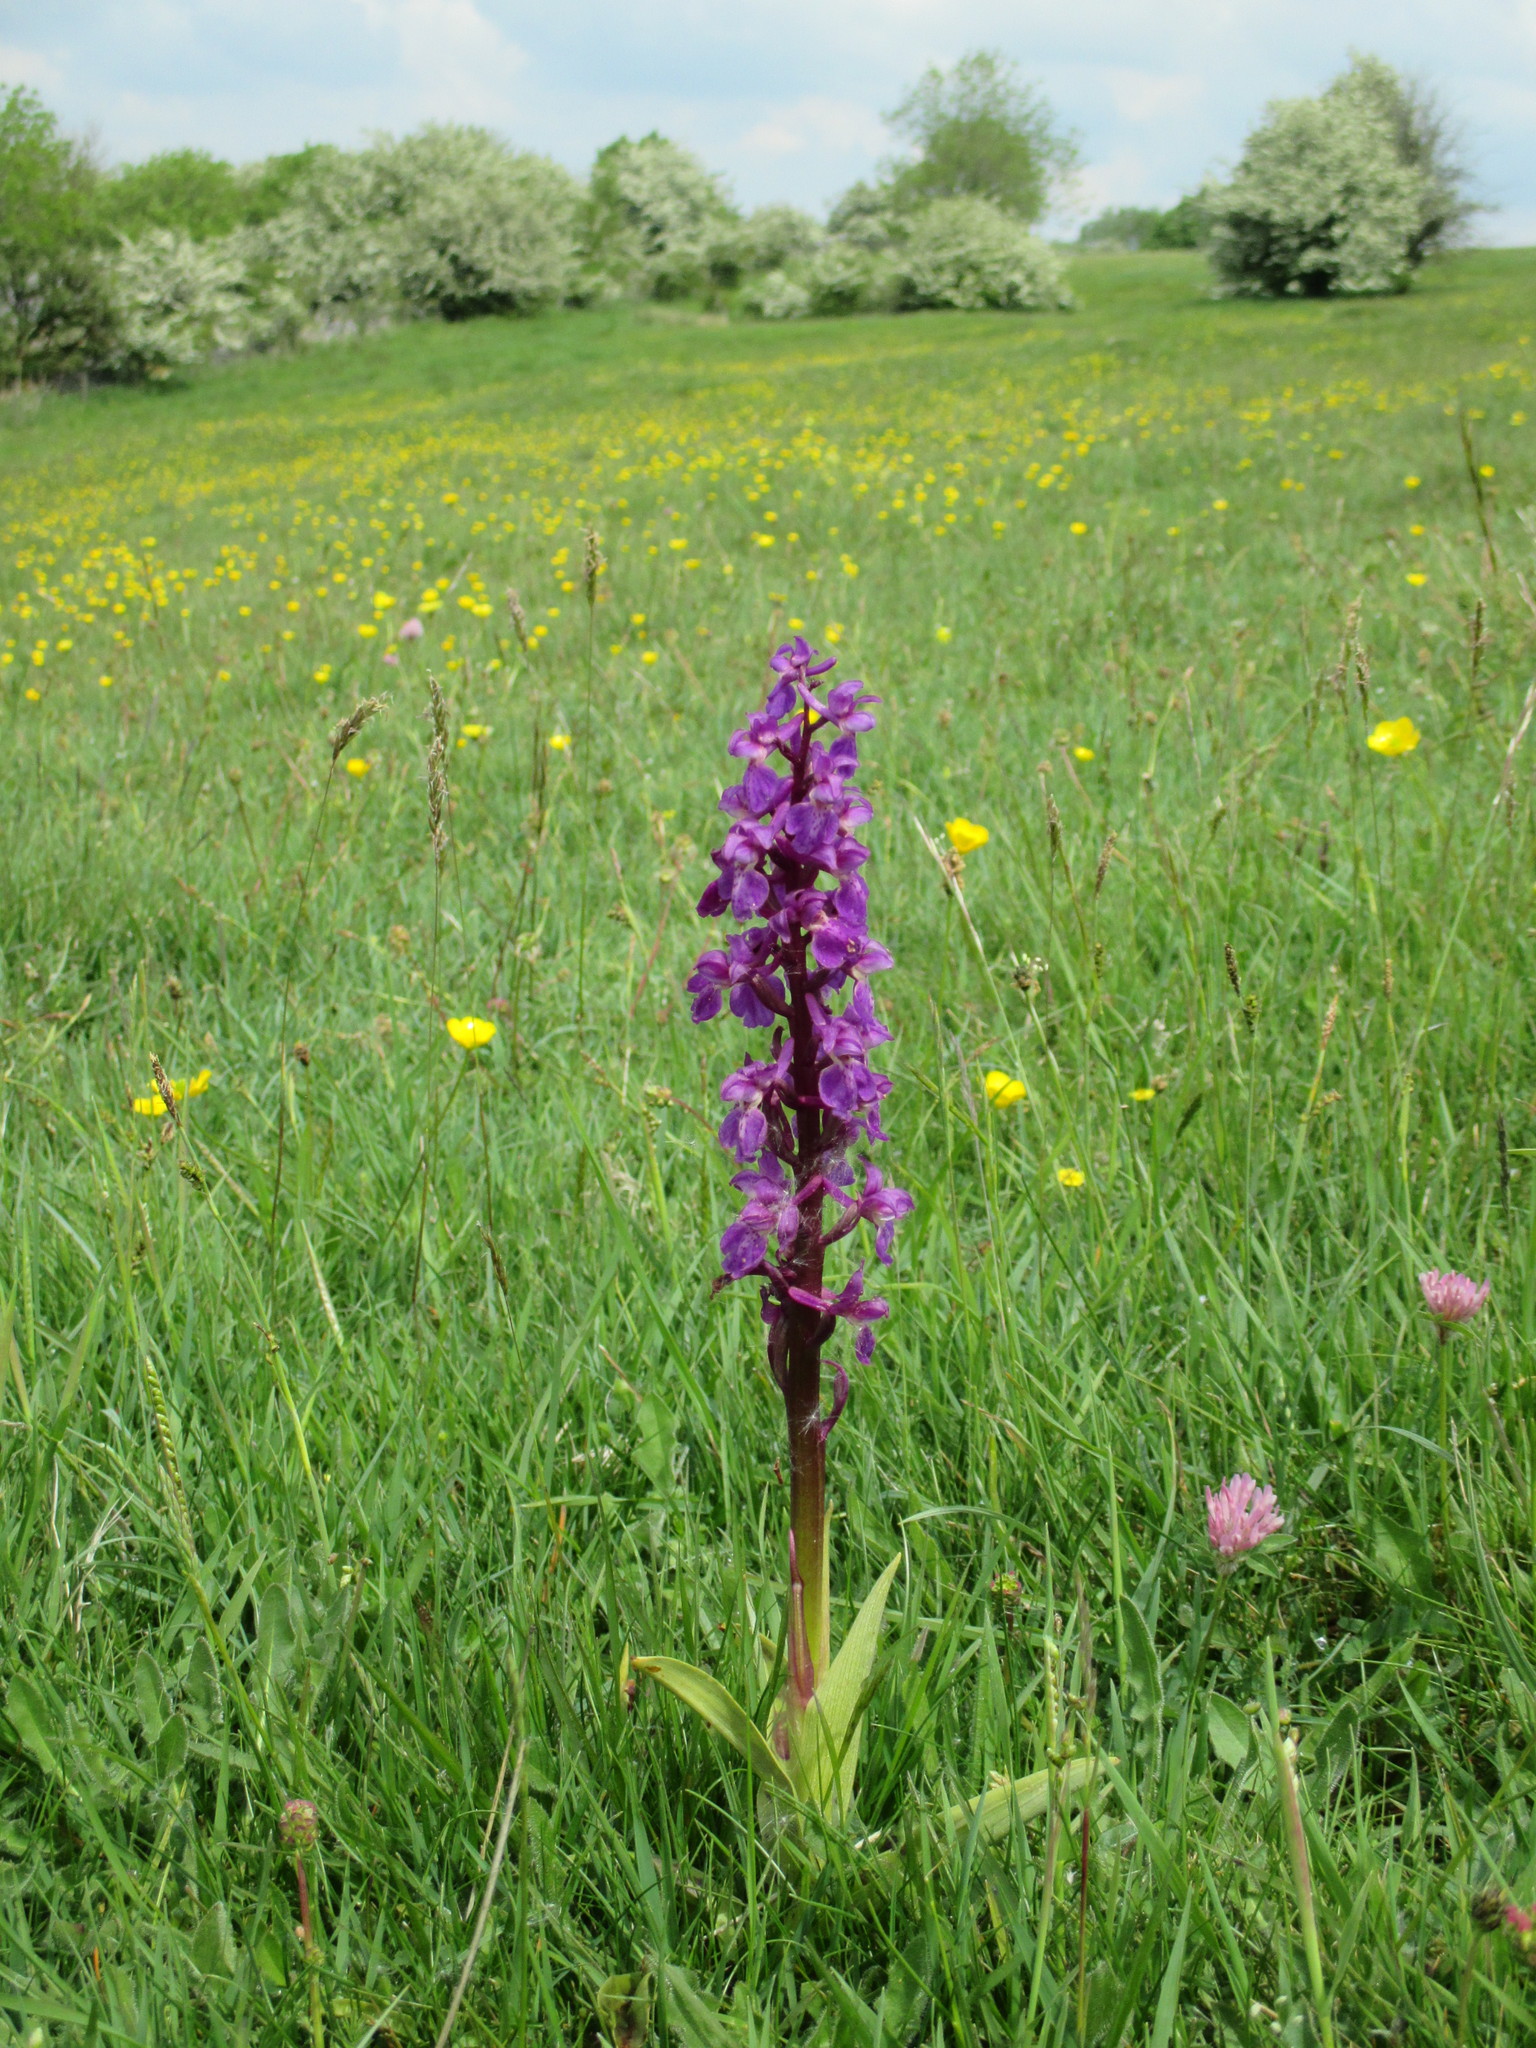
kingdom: Plantae
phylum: Tracheophyta
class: Liliopsida
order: Asparagales
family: Orchidaceae
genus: Orchis
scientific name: Orchis mascula
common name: Early-purple orchid
